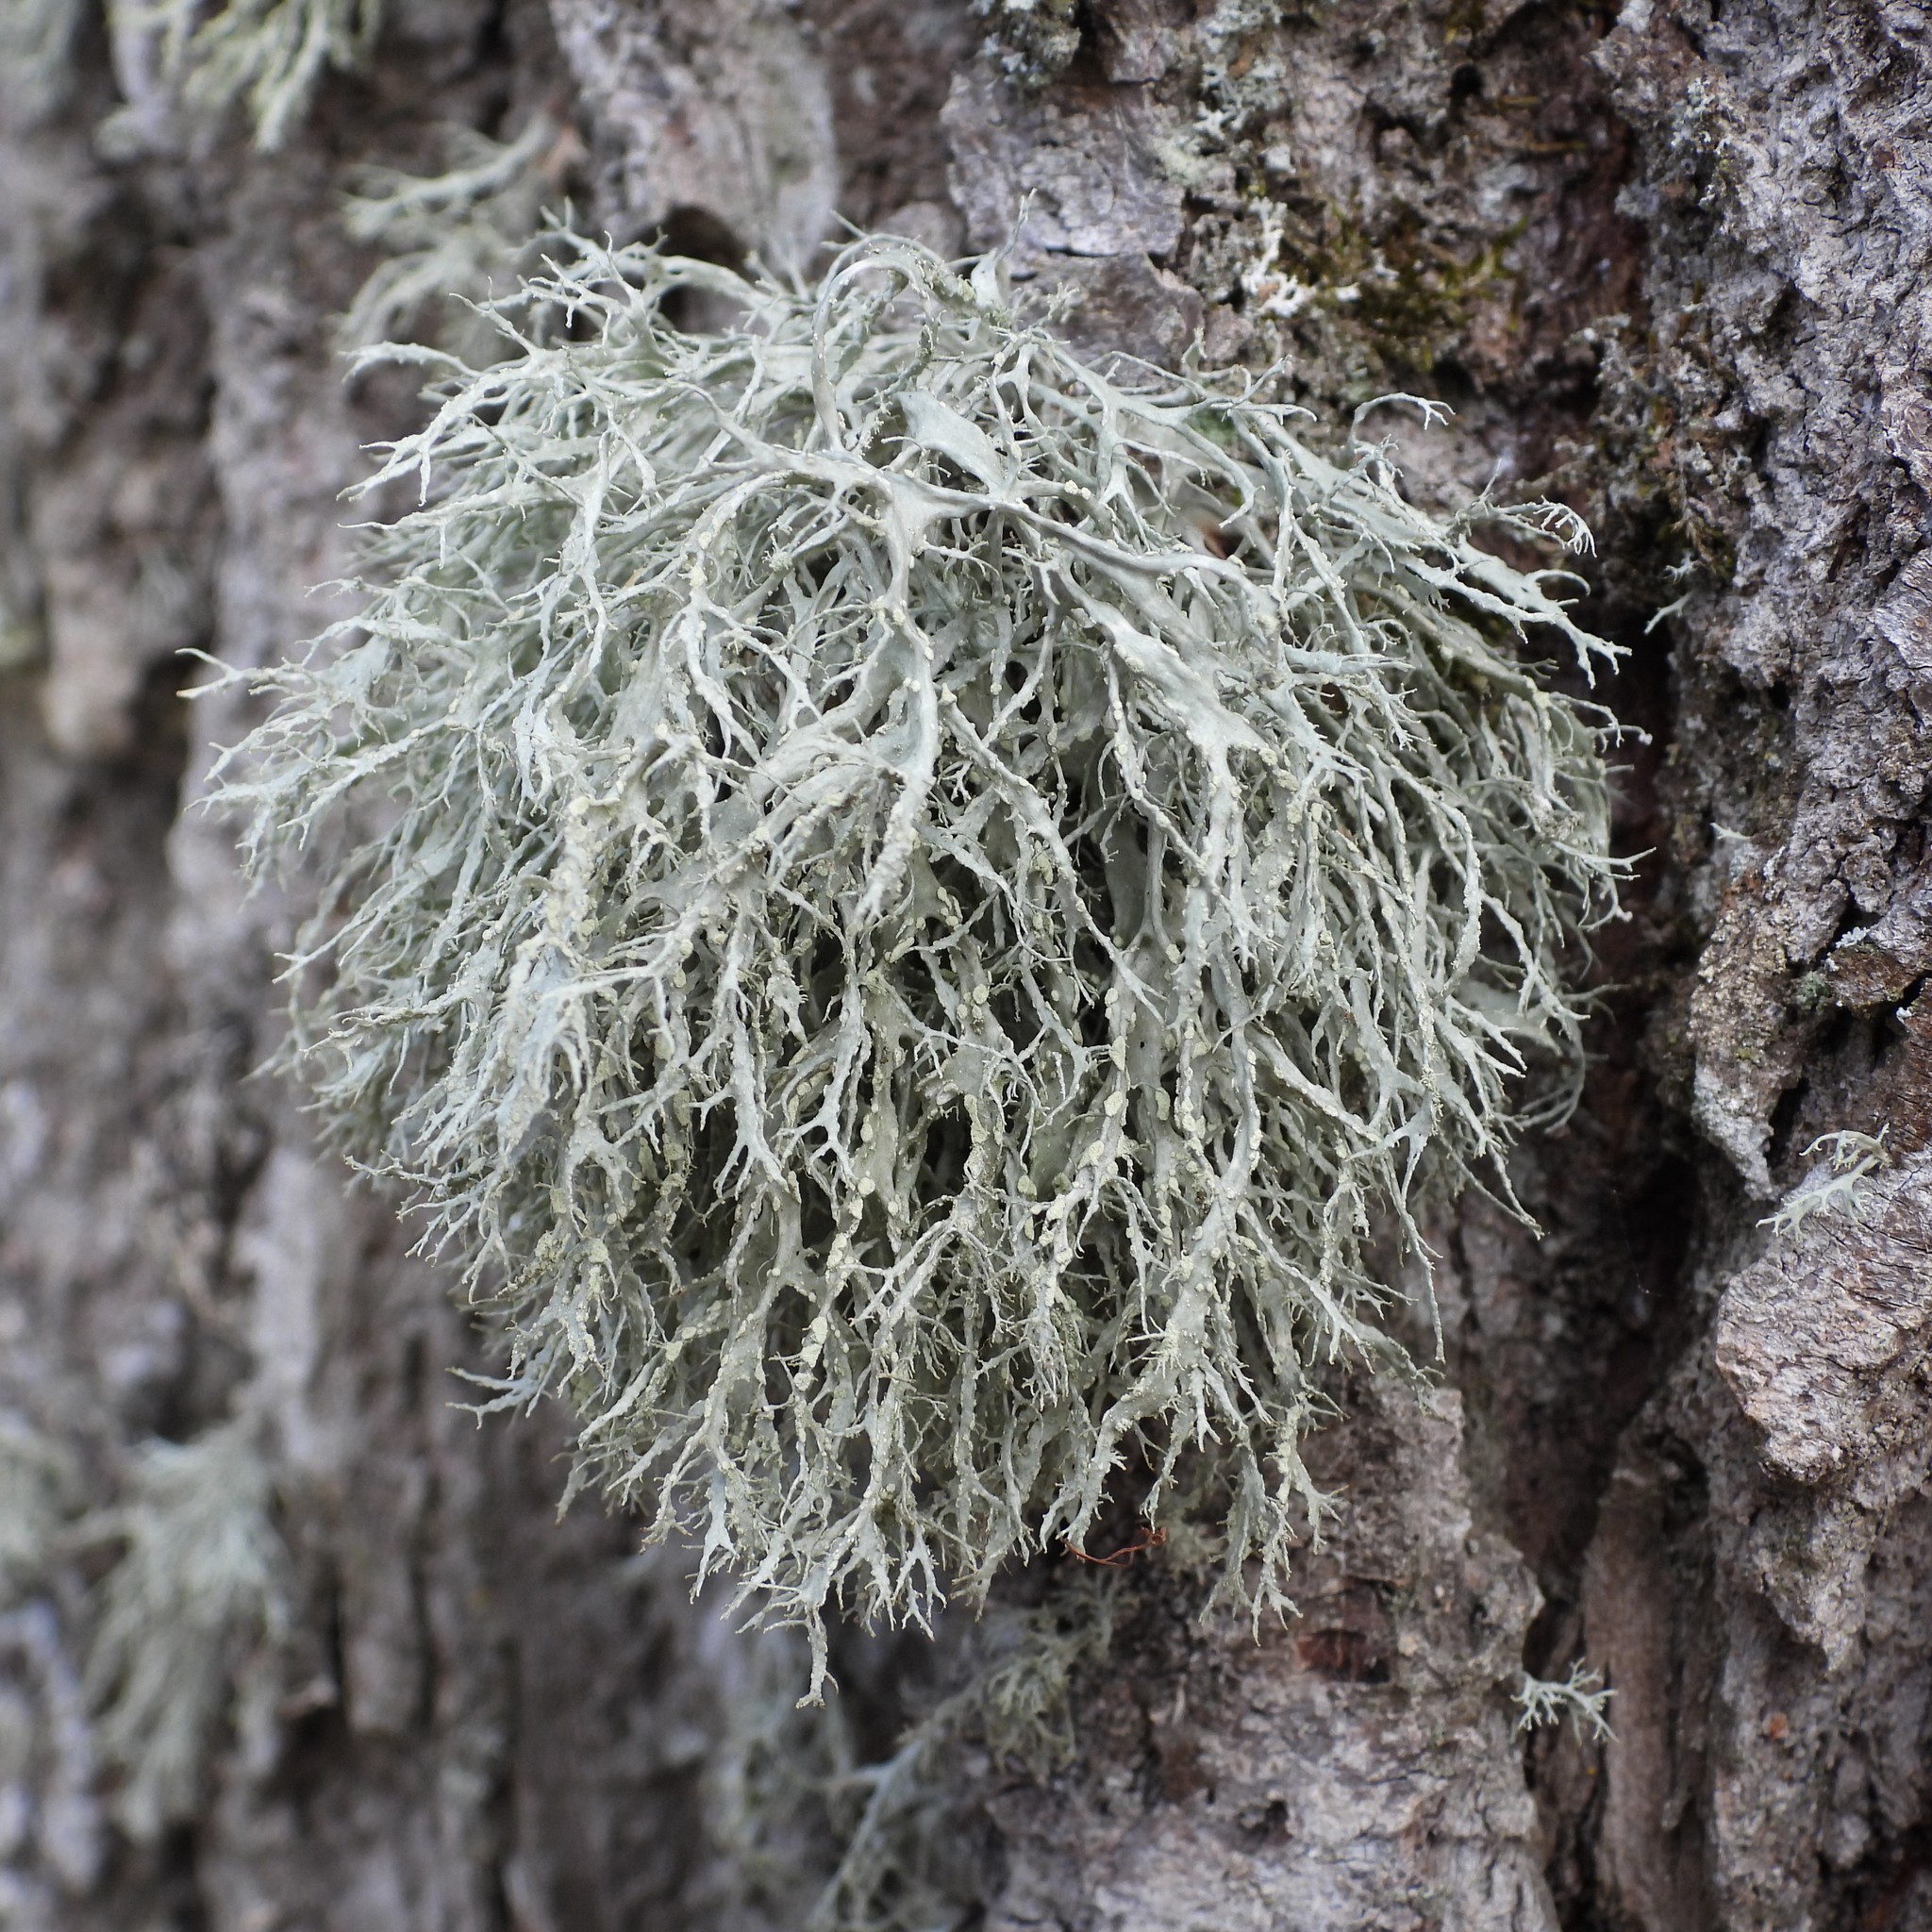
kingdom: Fungi
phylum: Ascomycota
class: Lecanoromycetes
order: Lecanorales
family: Ramalinaceae
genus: Ramalina
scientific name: Ramalina farinacea
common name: Farinose cartilage lichen
